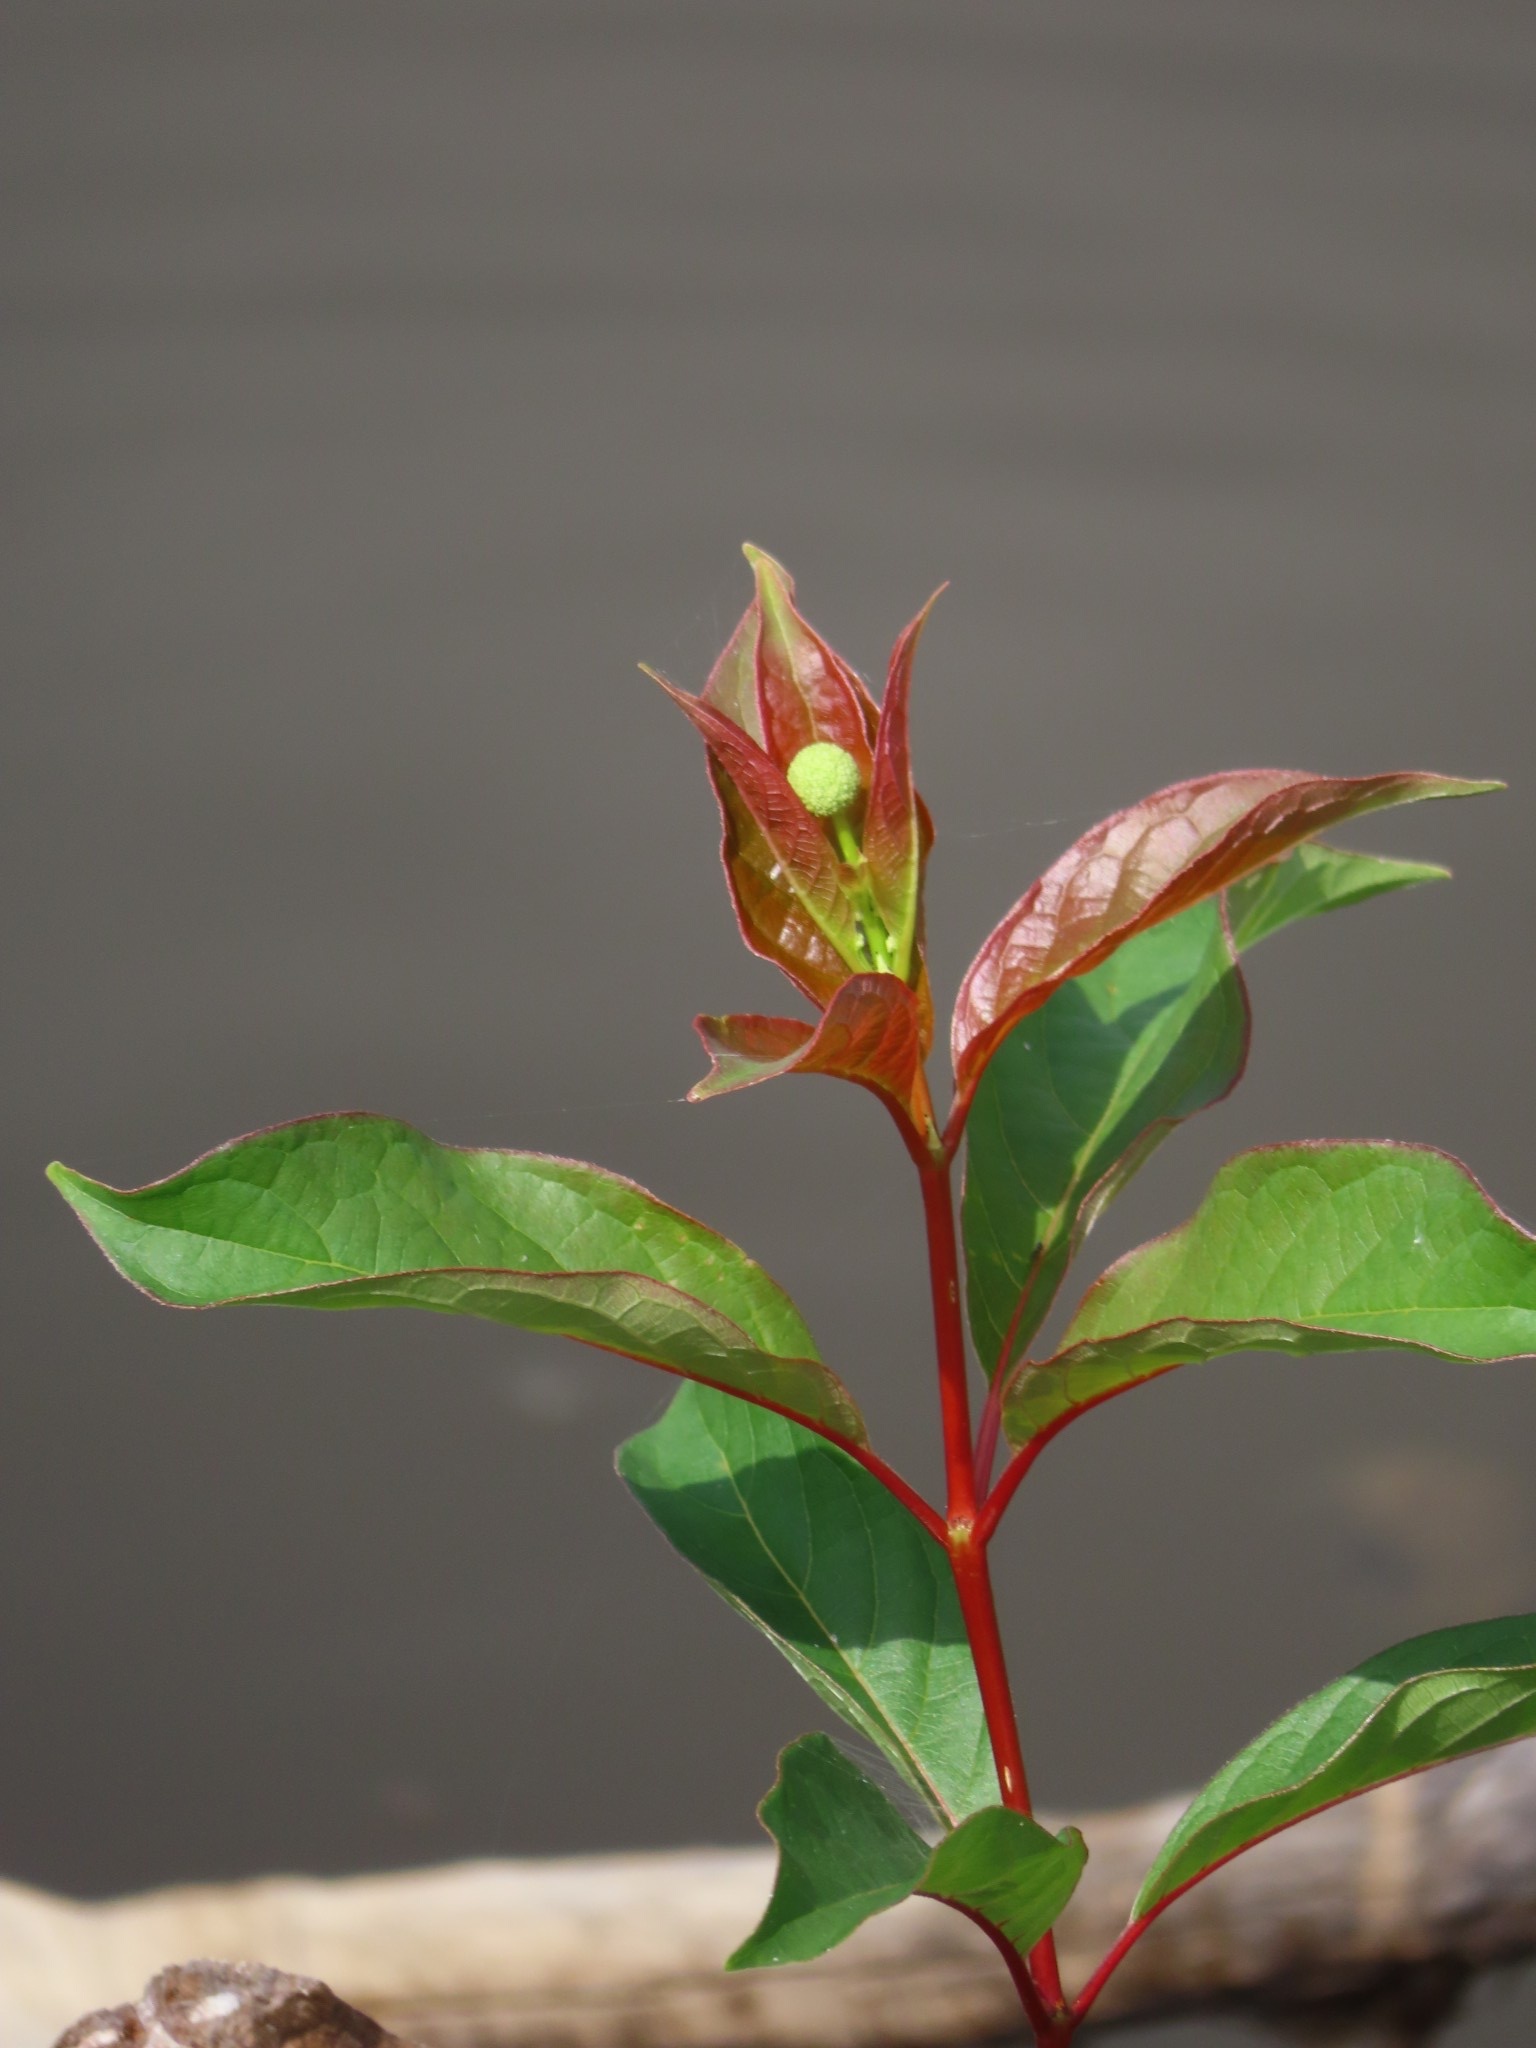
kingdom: Plantae
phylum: Tracheophyta
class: Magnoliopsida
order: Gentianales
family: Rubiaceae
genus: Cephalanthus
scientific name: Cephalanthus occidentalis
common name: Button-willow
